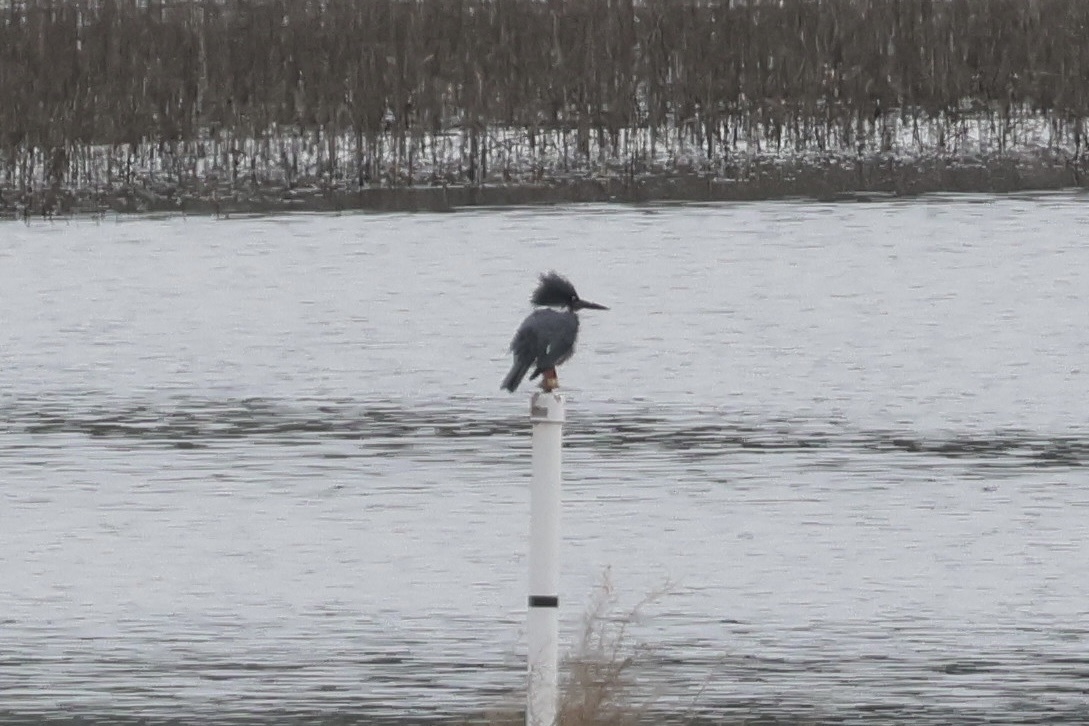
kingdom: Animalia
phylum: Chordata
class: Aves
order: Coraciiformes
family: Alcedinidae
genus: Megaceryle
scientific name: Megaceryle alcyon
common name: Belted kingfisher
